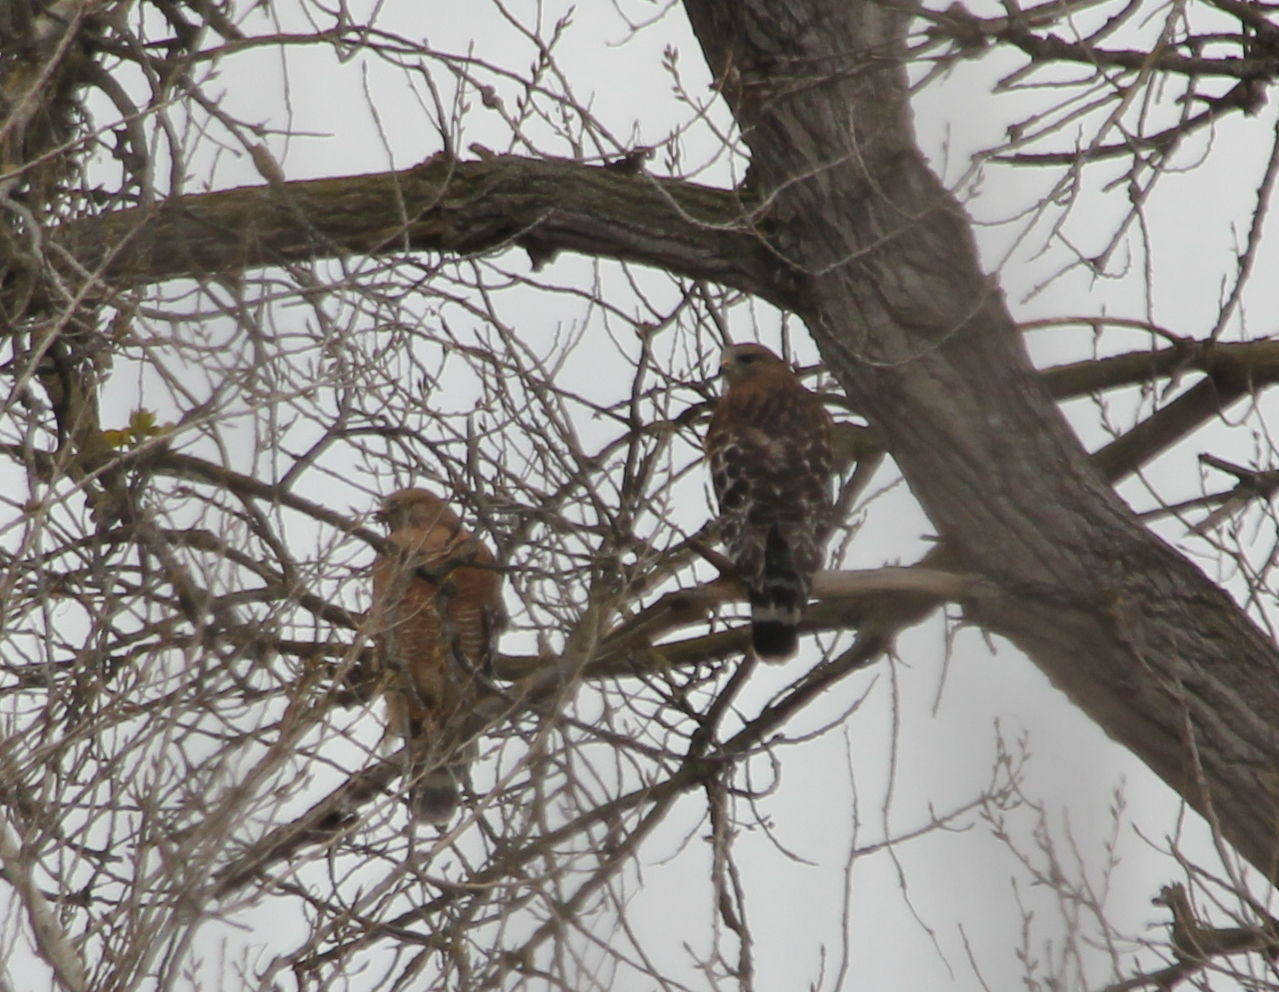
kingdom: Animalia
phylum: Chordata
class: Aves
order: Accipitriformes
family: Accipitridae
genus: Buteo
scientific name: Buteo lineatus
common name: Red-shouldered hawk
